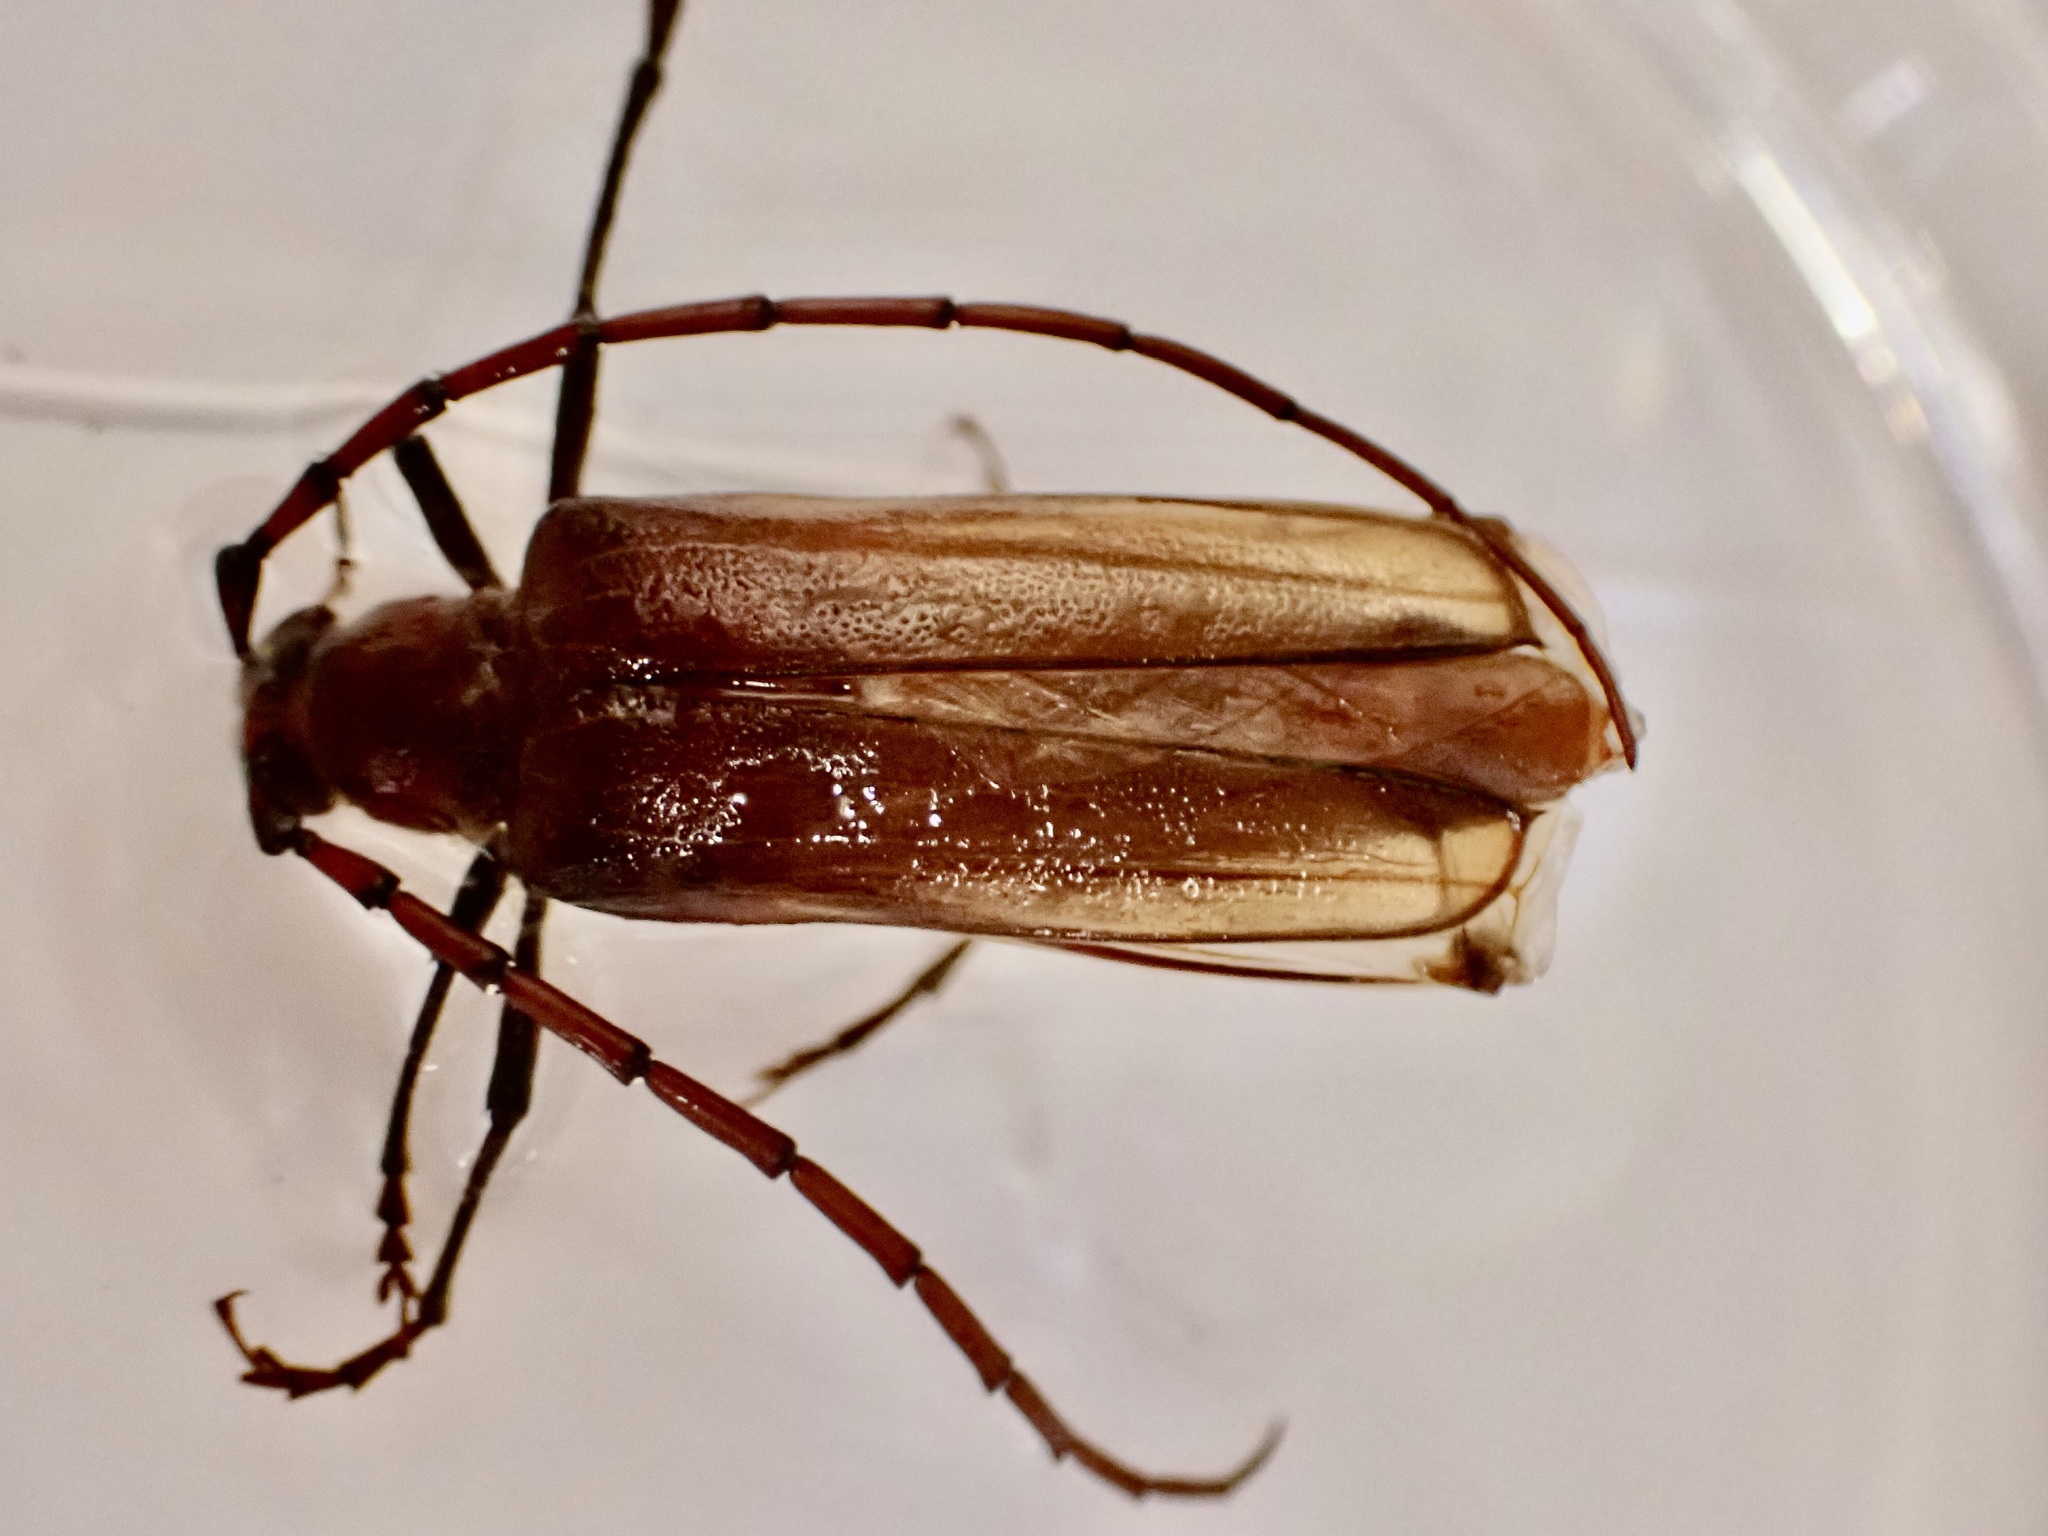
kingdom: Animalia
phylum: Arthropoda
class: Insecta
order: Coleoptera
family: Cerambycidae
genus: Ochrocydus
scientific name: Ochrocydus huttoni
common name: Kanuka longhorn
